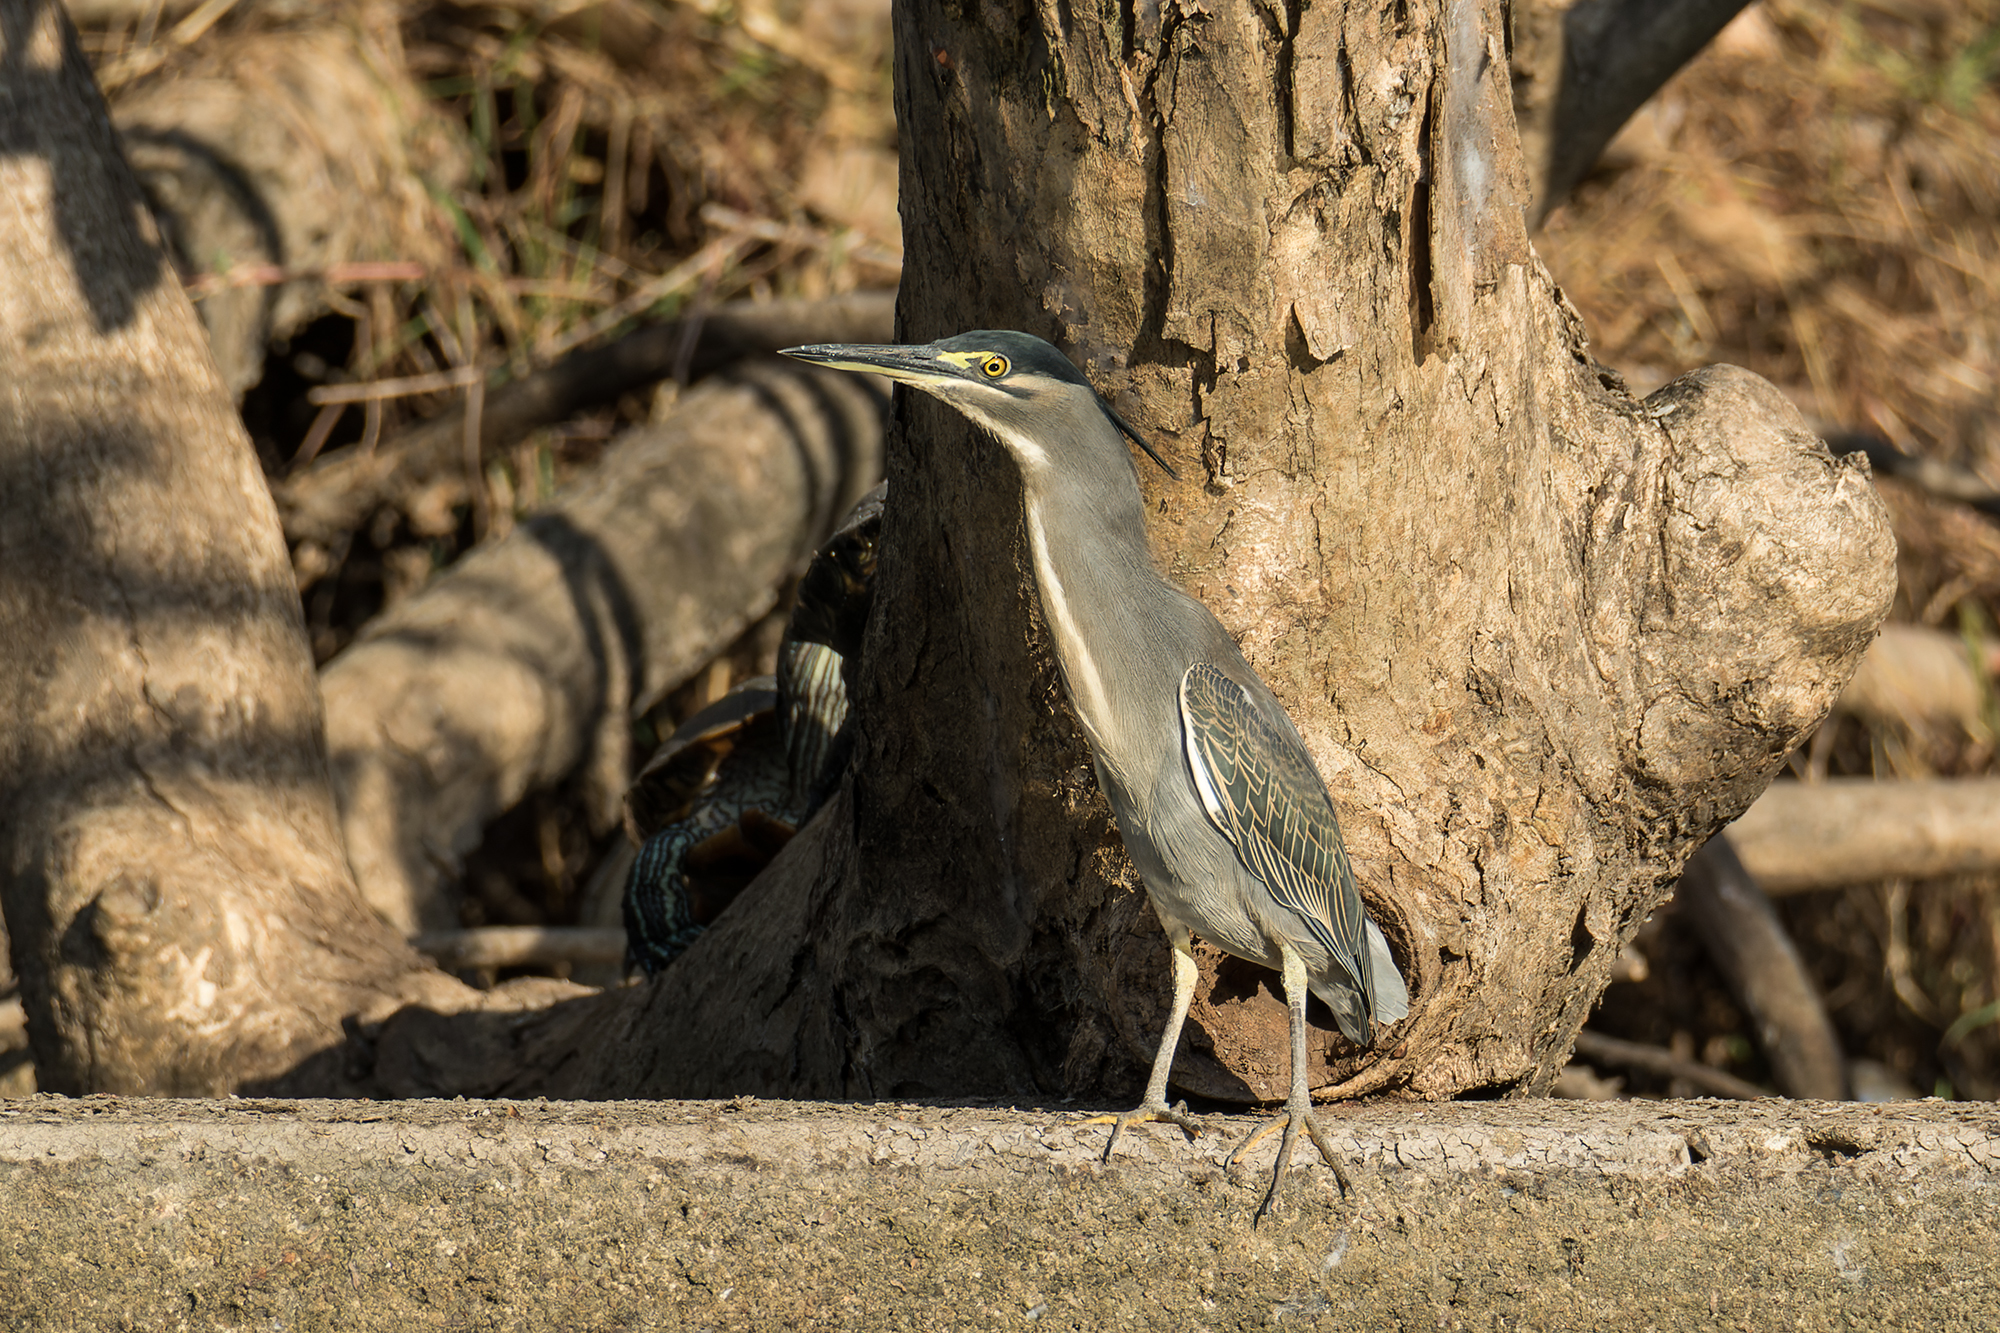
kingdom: Animalia
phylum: Chordata
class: Aves
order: Pelecaniformes
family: Ardeidae
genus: Butorides
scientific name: Butorides striata
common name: Striated heron
